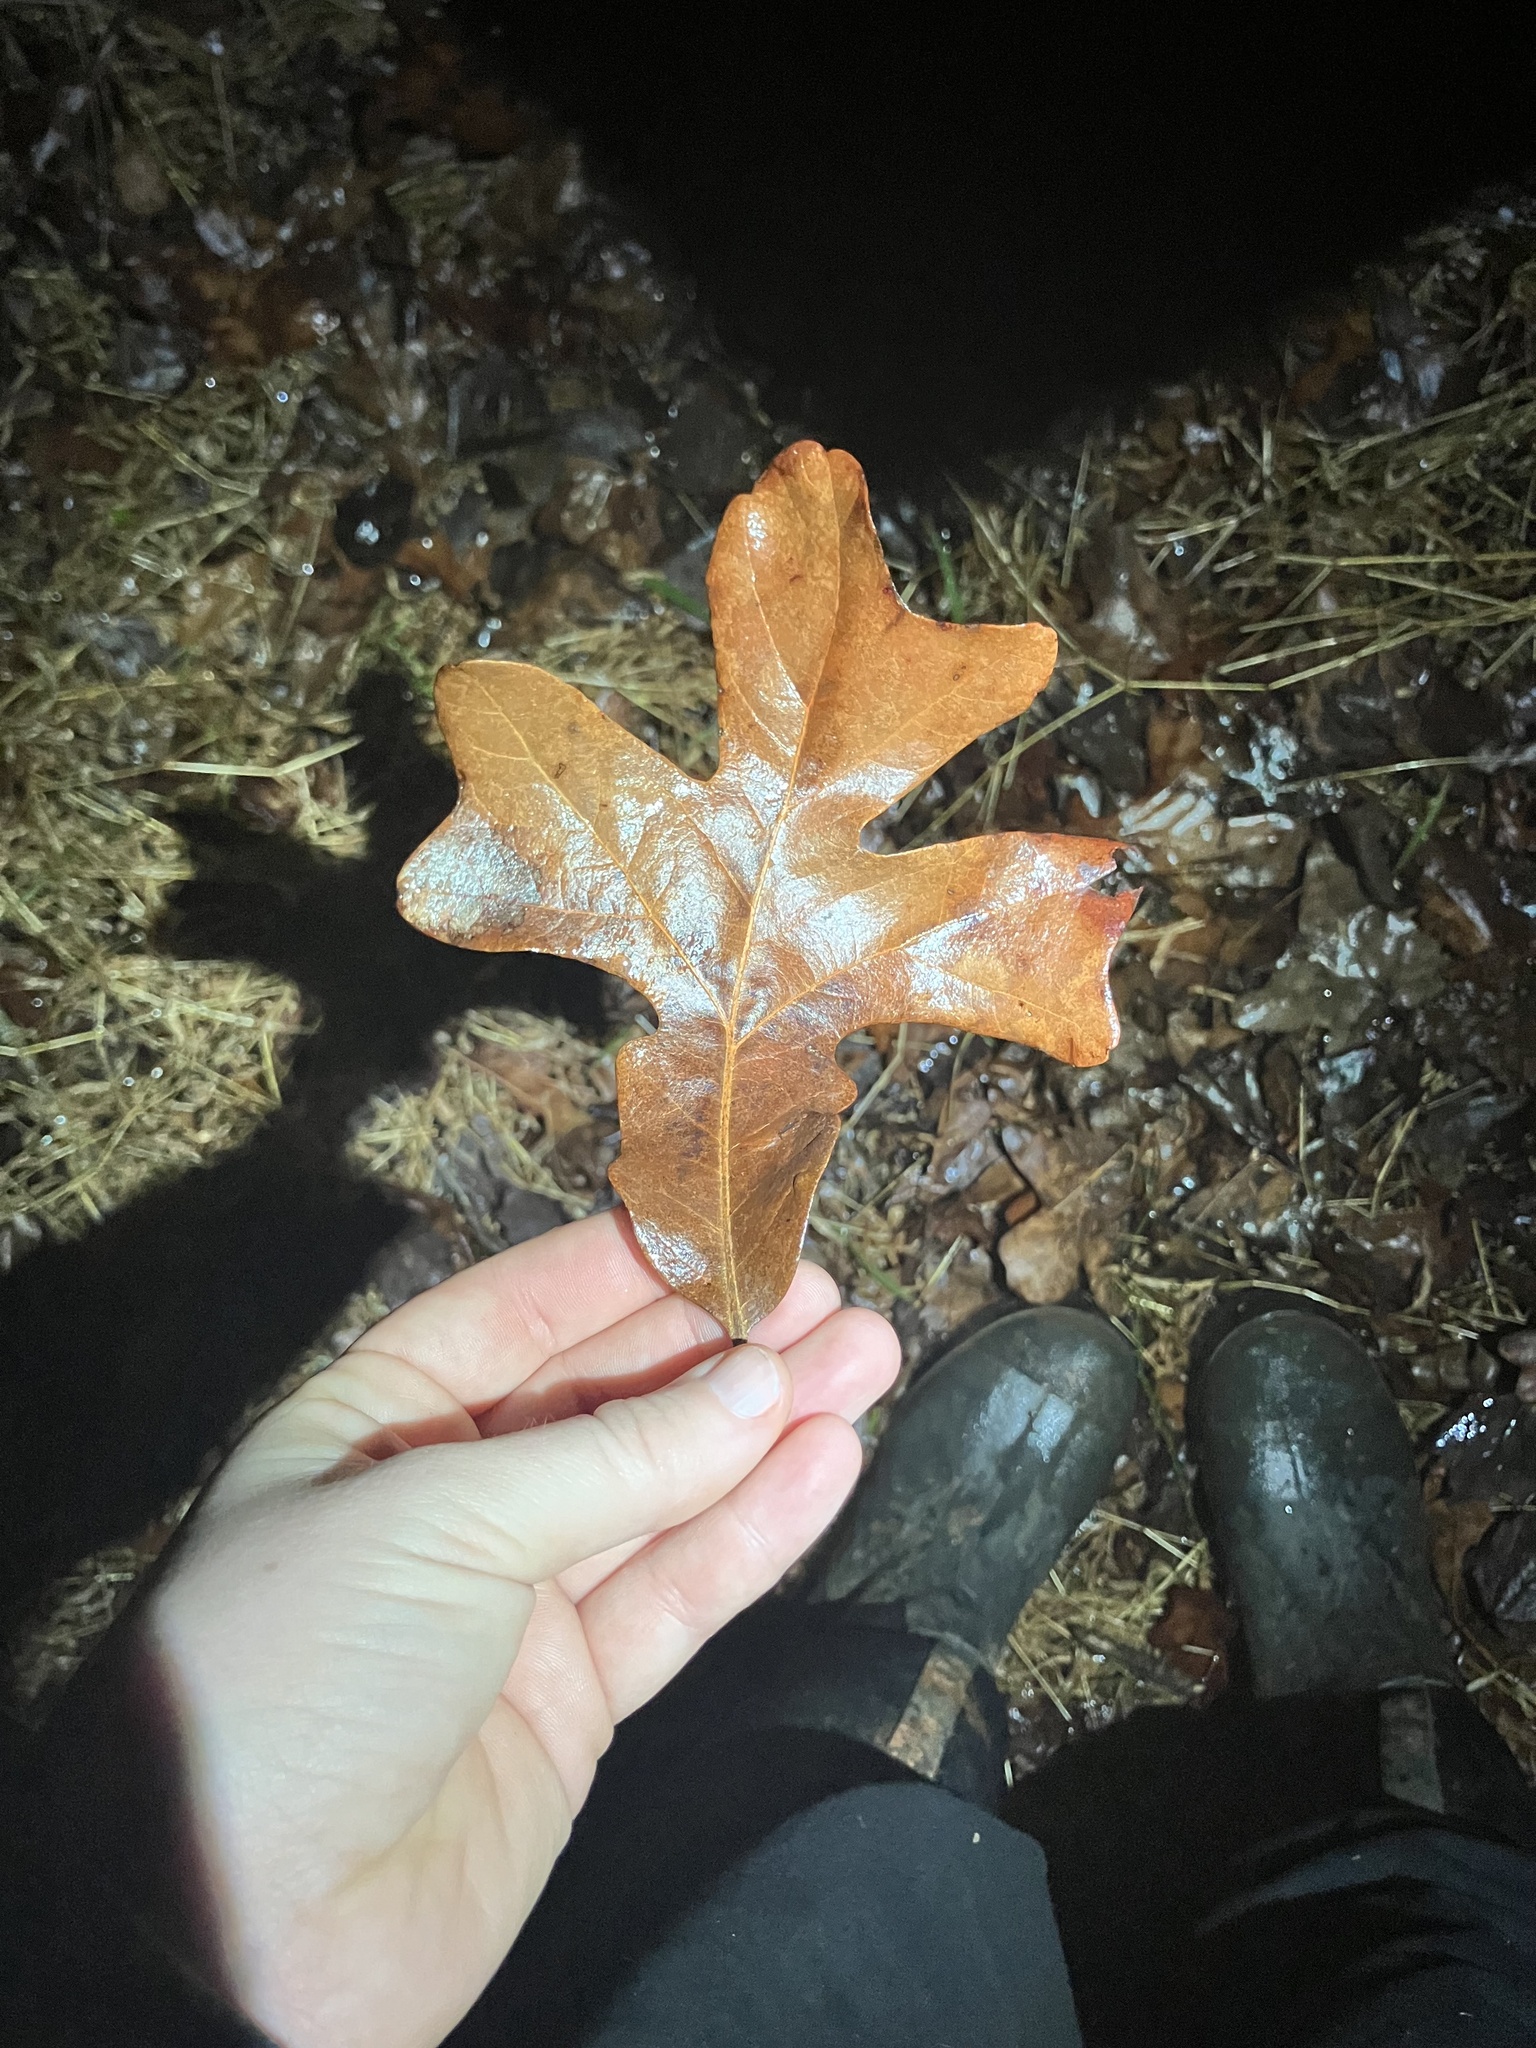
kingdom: Plantae
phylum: Tracheophyta
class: Magnoliopsida
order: Fagales
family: Fagaceae
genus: Quercus
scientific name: Quercus stellata
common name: Post oak
